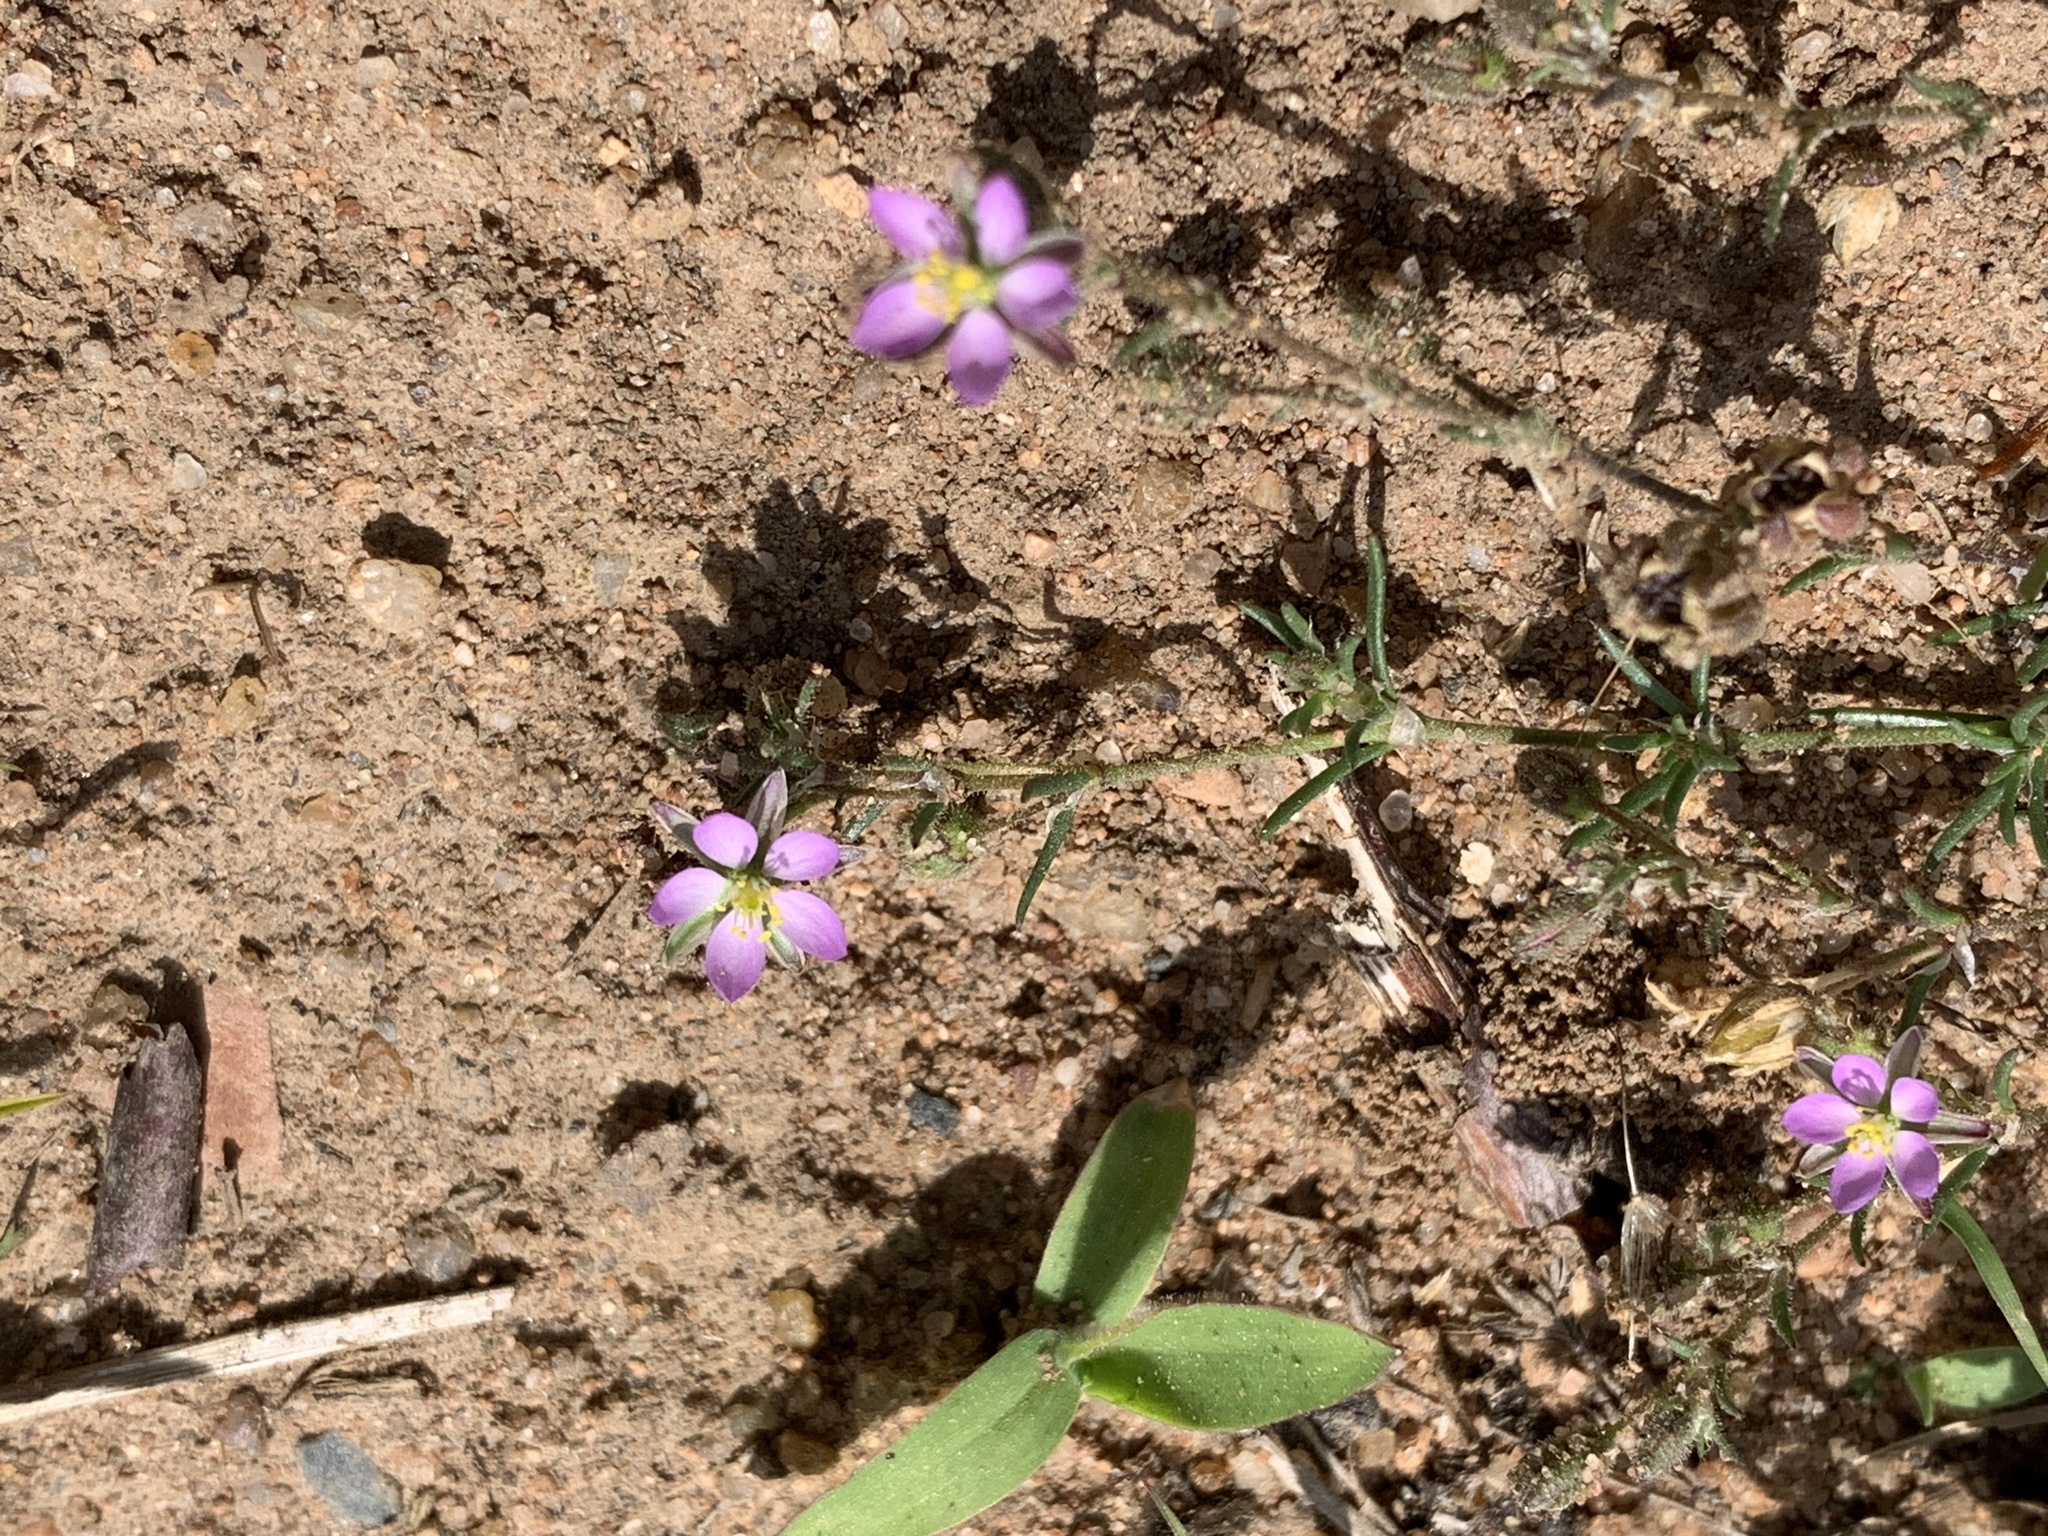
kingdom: Plantae
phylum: Tracheophyta
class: Magnoliopsida
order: Caryophyllales
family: Caryophyllaceae
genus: Spergularia
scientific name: Spergularia rubra
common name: Red sand-spurrey
